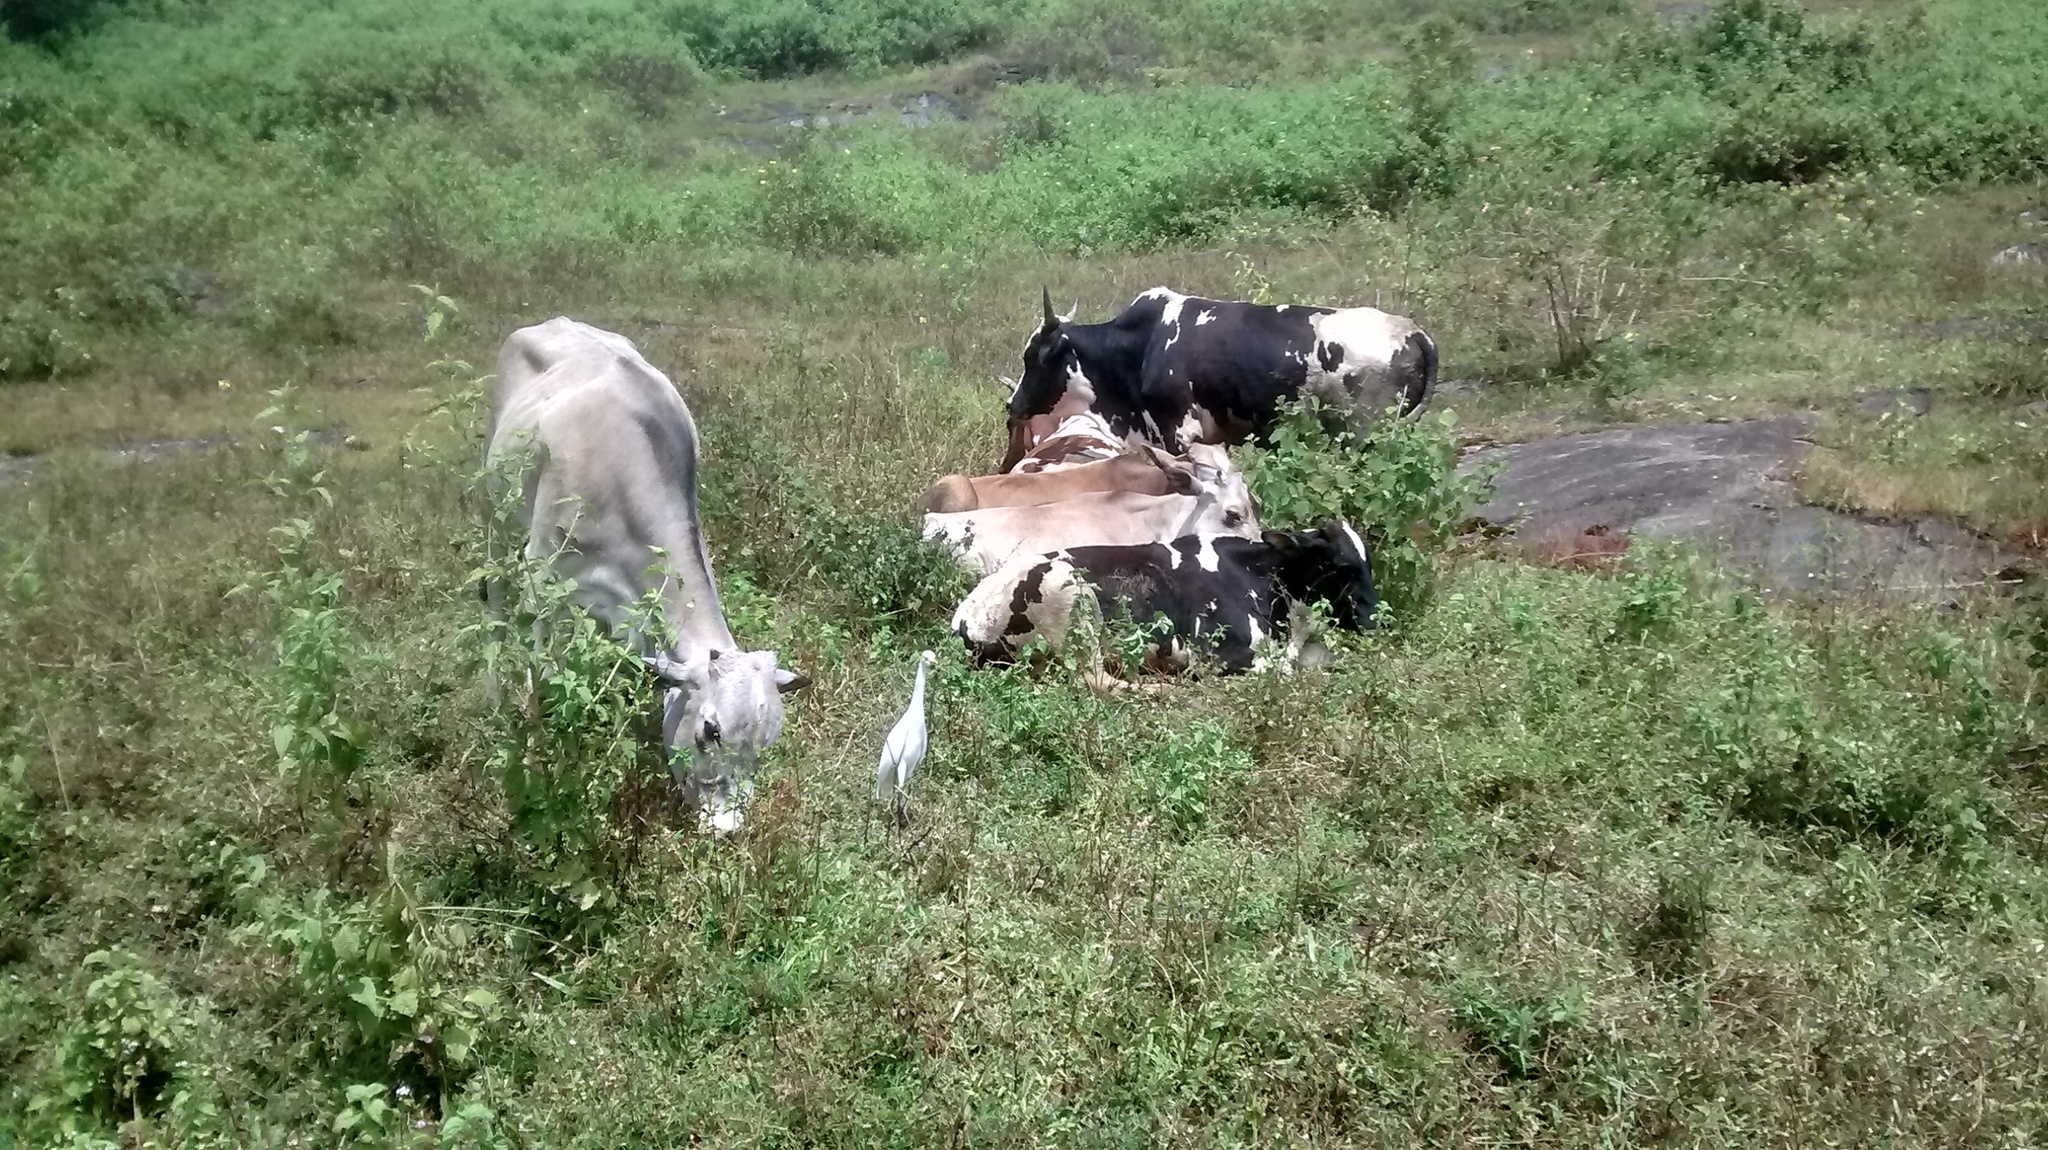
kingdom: Animalia
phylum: Chordata
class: Aves
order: Pelecaniformes
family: Ardeidae
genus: Bubulcus
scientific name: Bubulcus coromandus
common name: Eastern cattle egret
